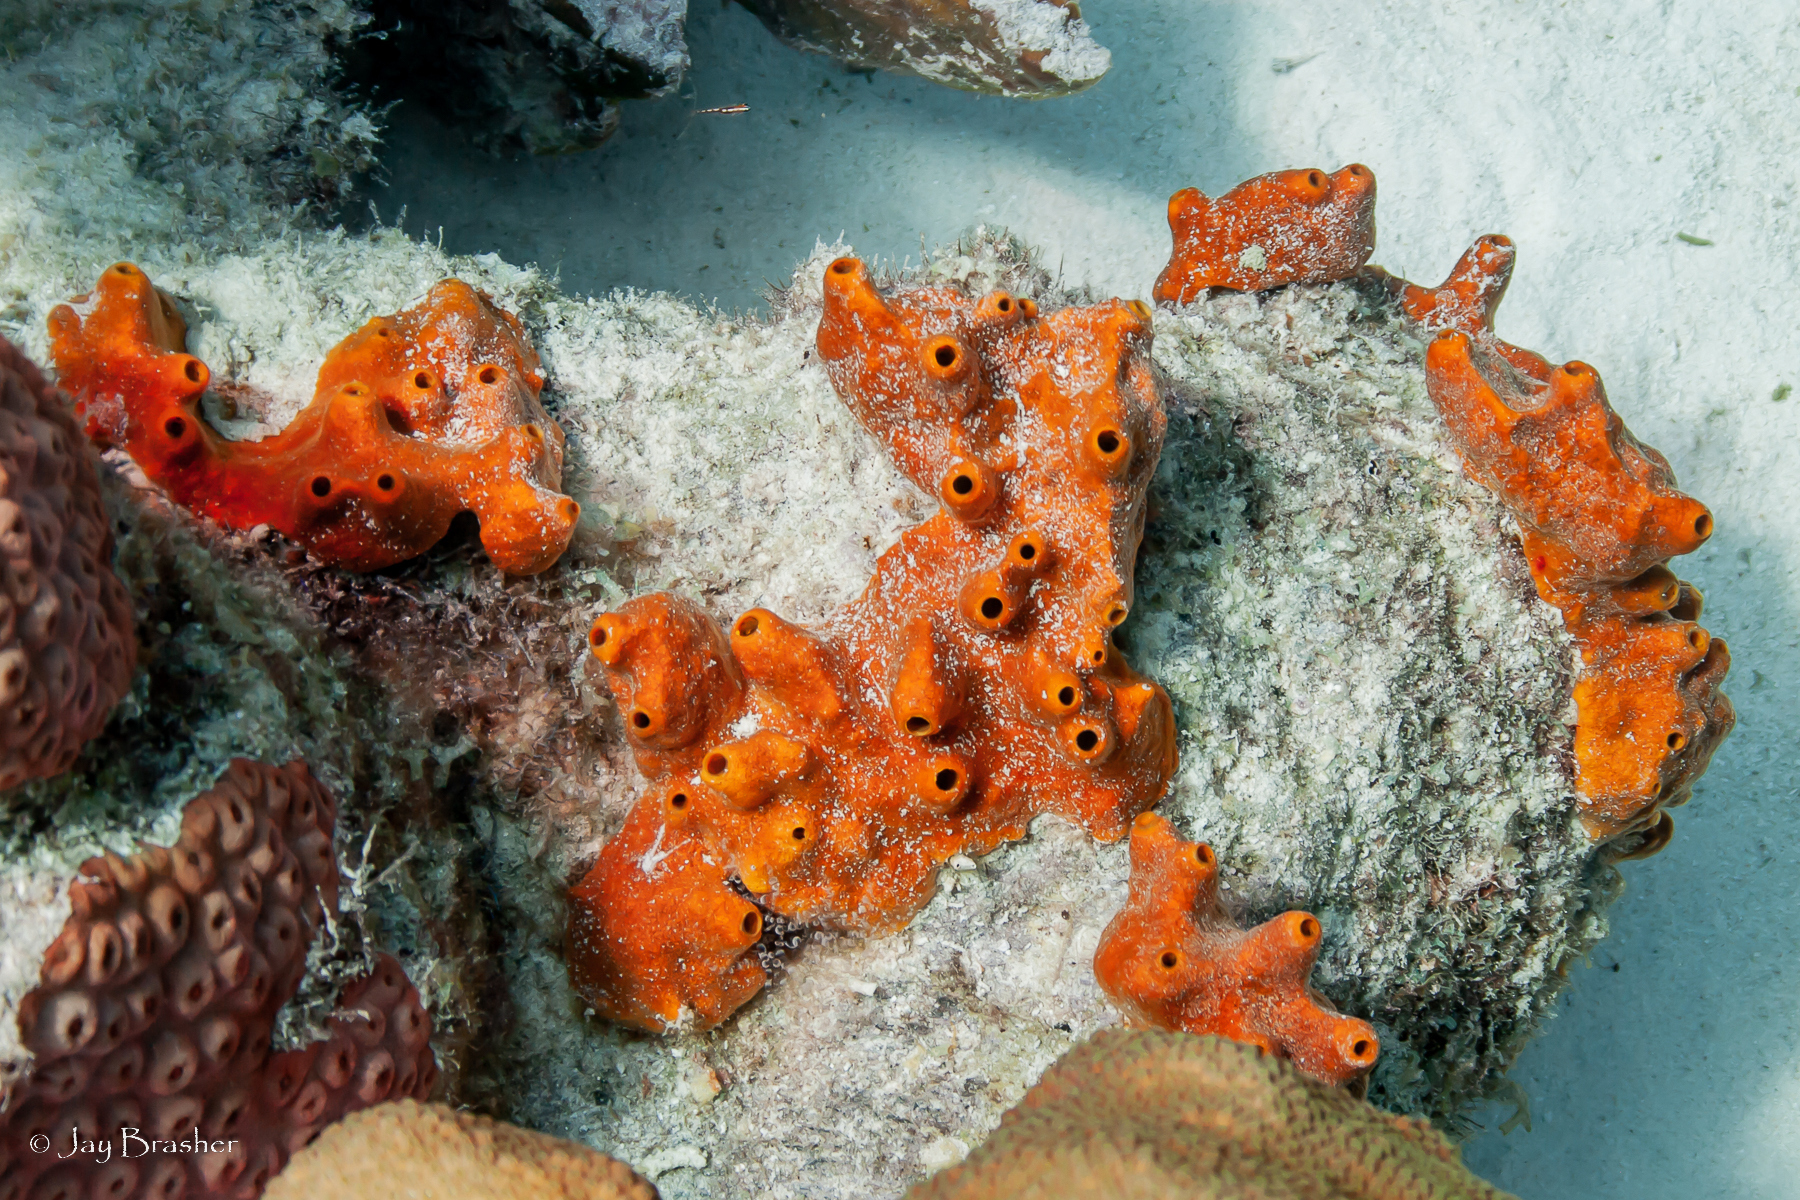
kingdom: Animalia
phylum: Porifera
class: Demospongiae
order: Axinellida
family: Raspailiidae
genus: Ectyoplasia
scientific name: Ectyoplasia ferox
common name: Brown encrusting octopus sponge
